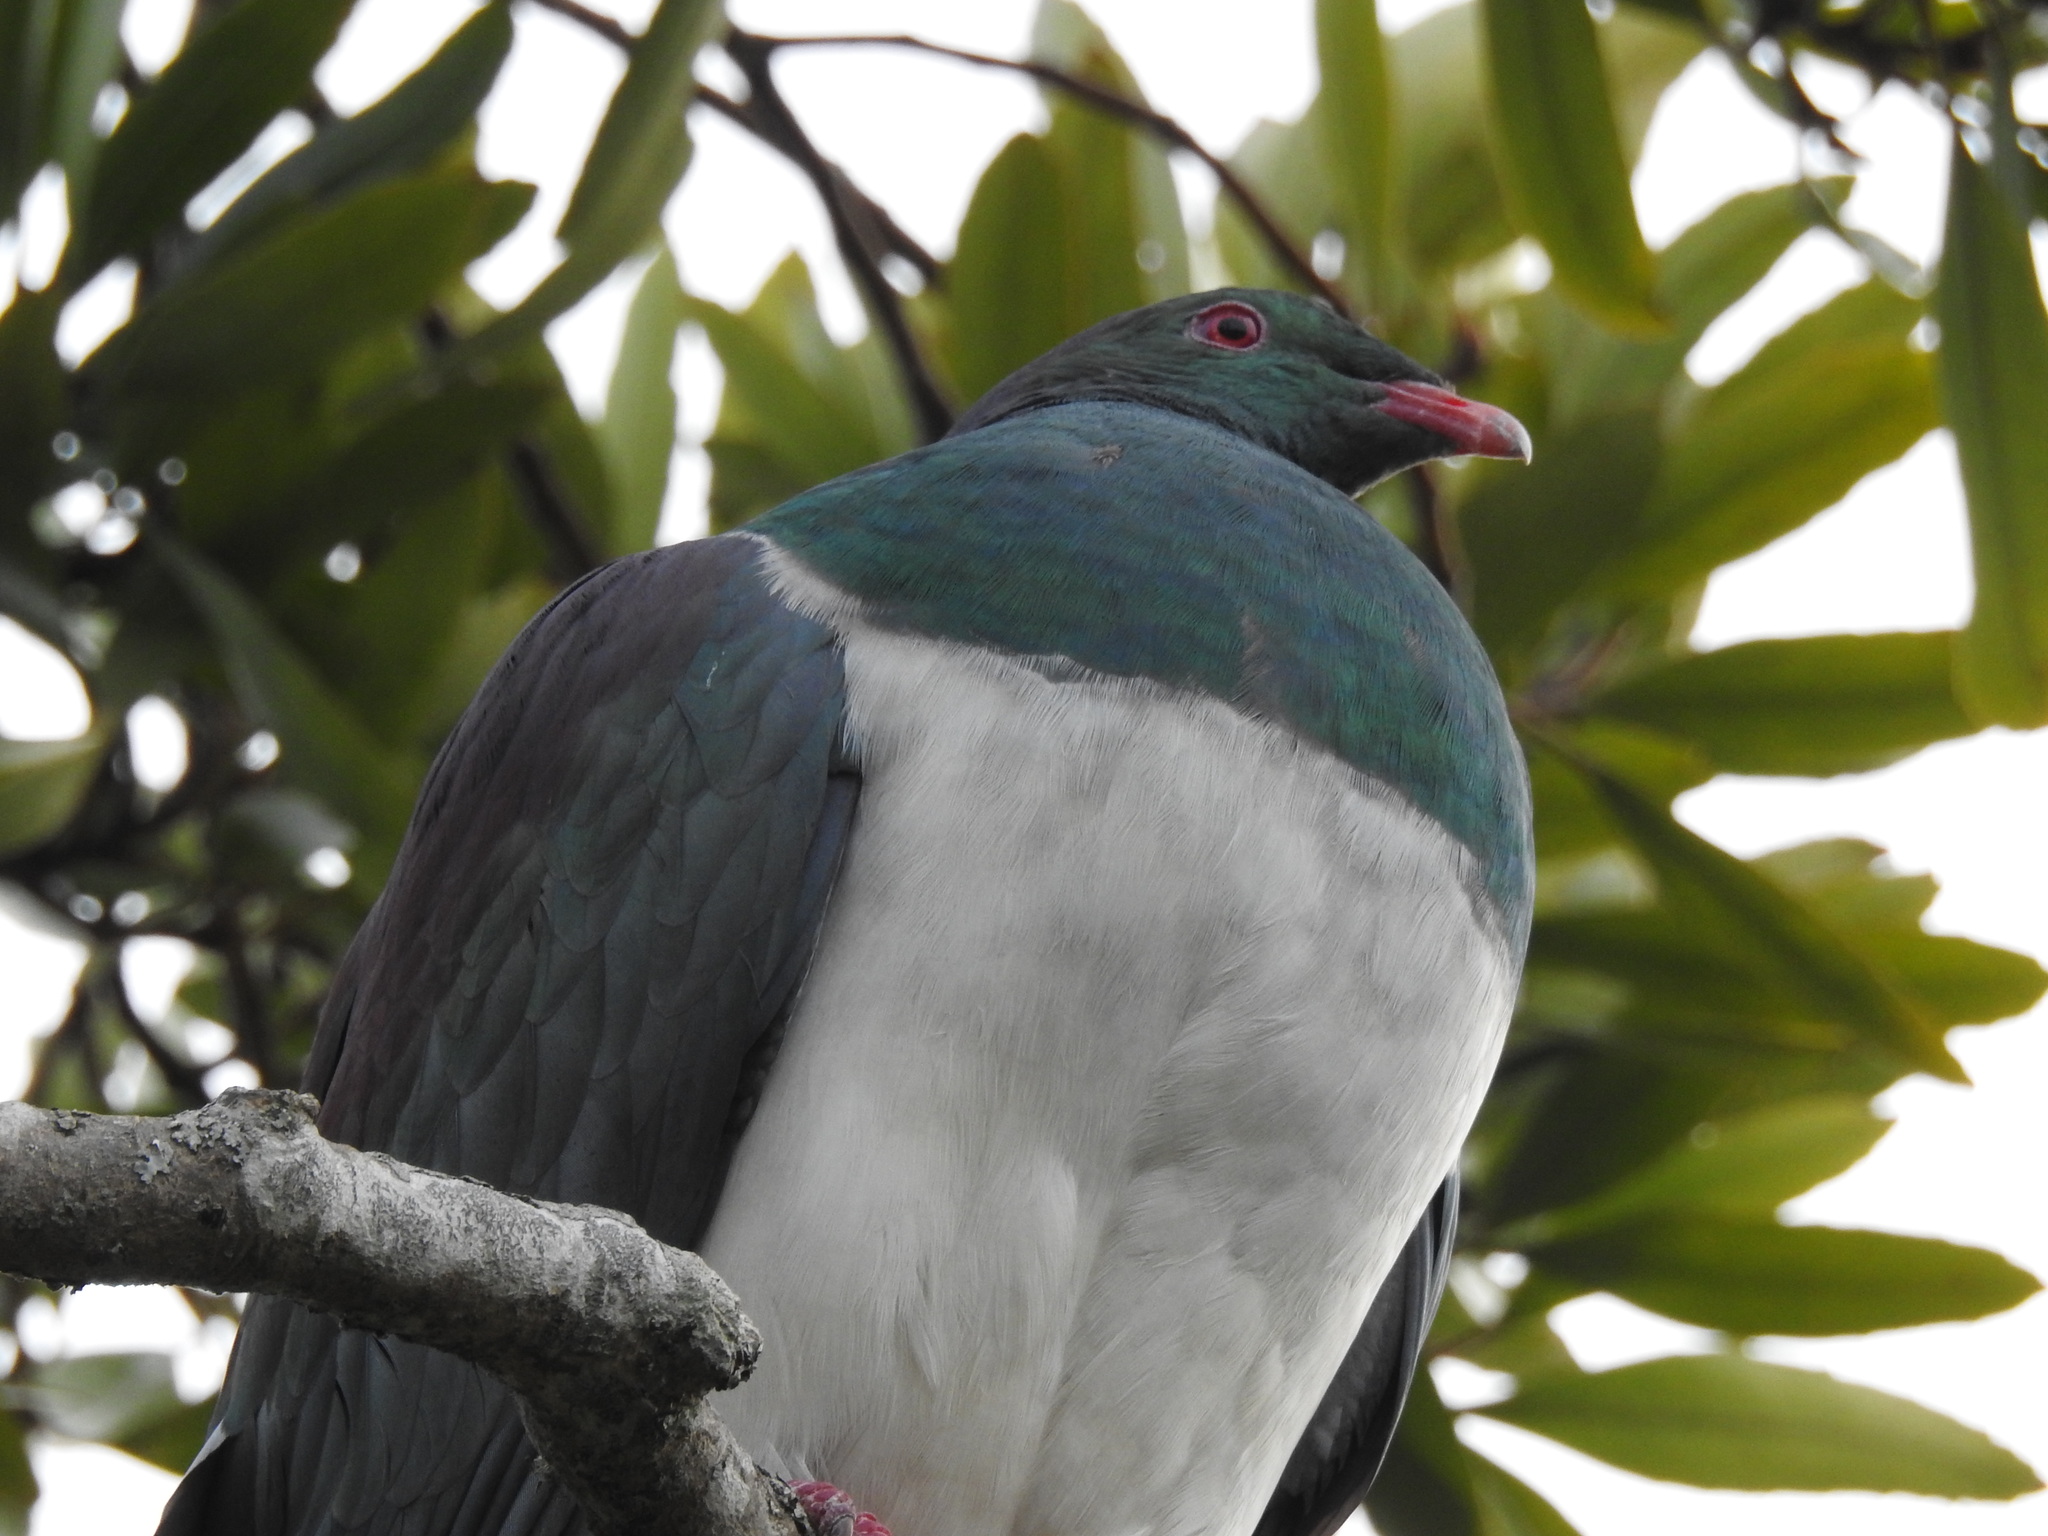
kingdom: Animalia
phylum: Chordata
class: Aves
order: Columbiformes
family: Columbidae
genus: Hemiphaga
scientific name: Hemiphaga novaeseelandiae
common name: New zealand pigeon
